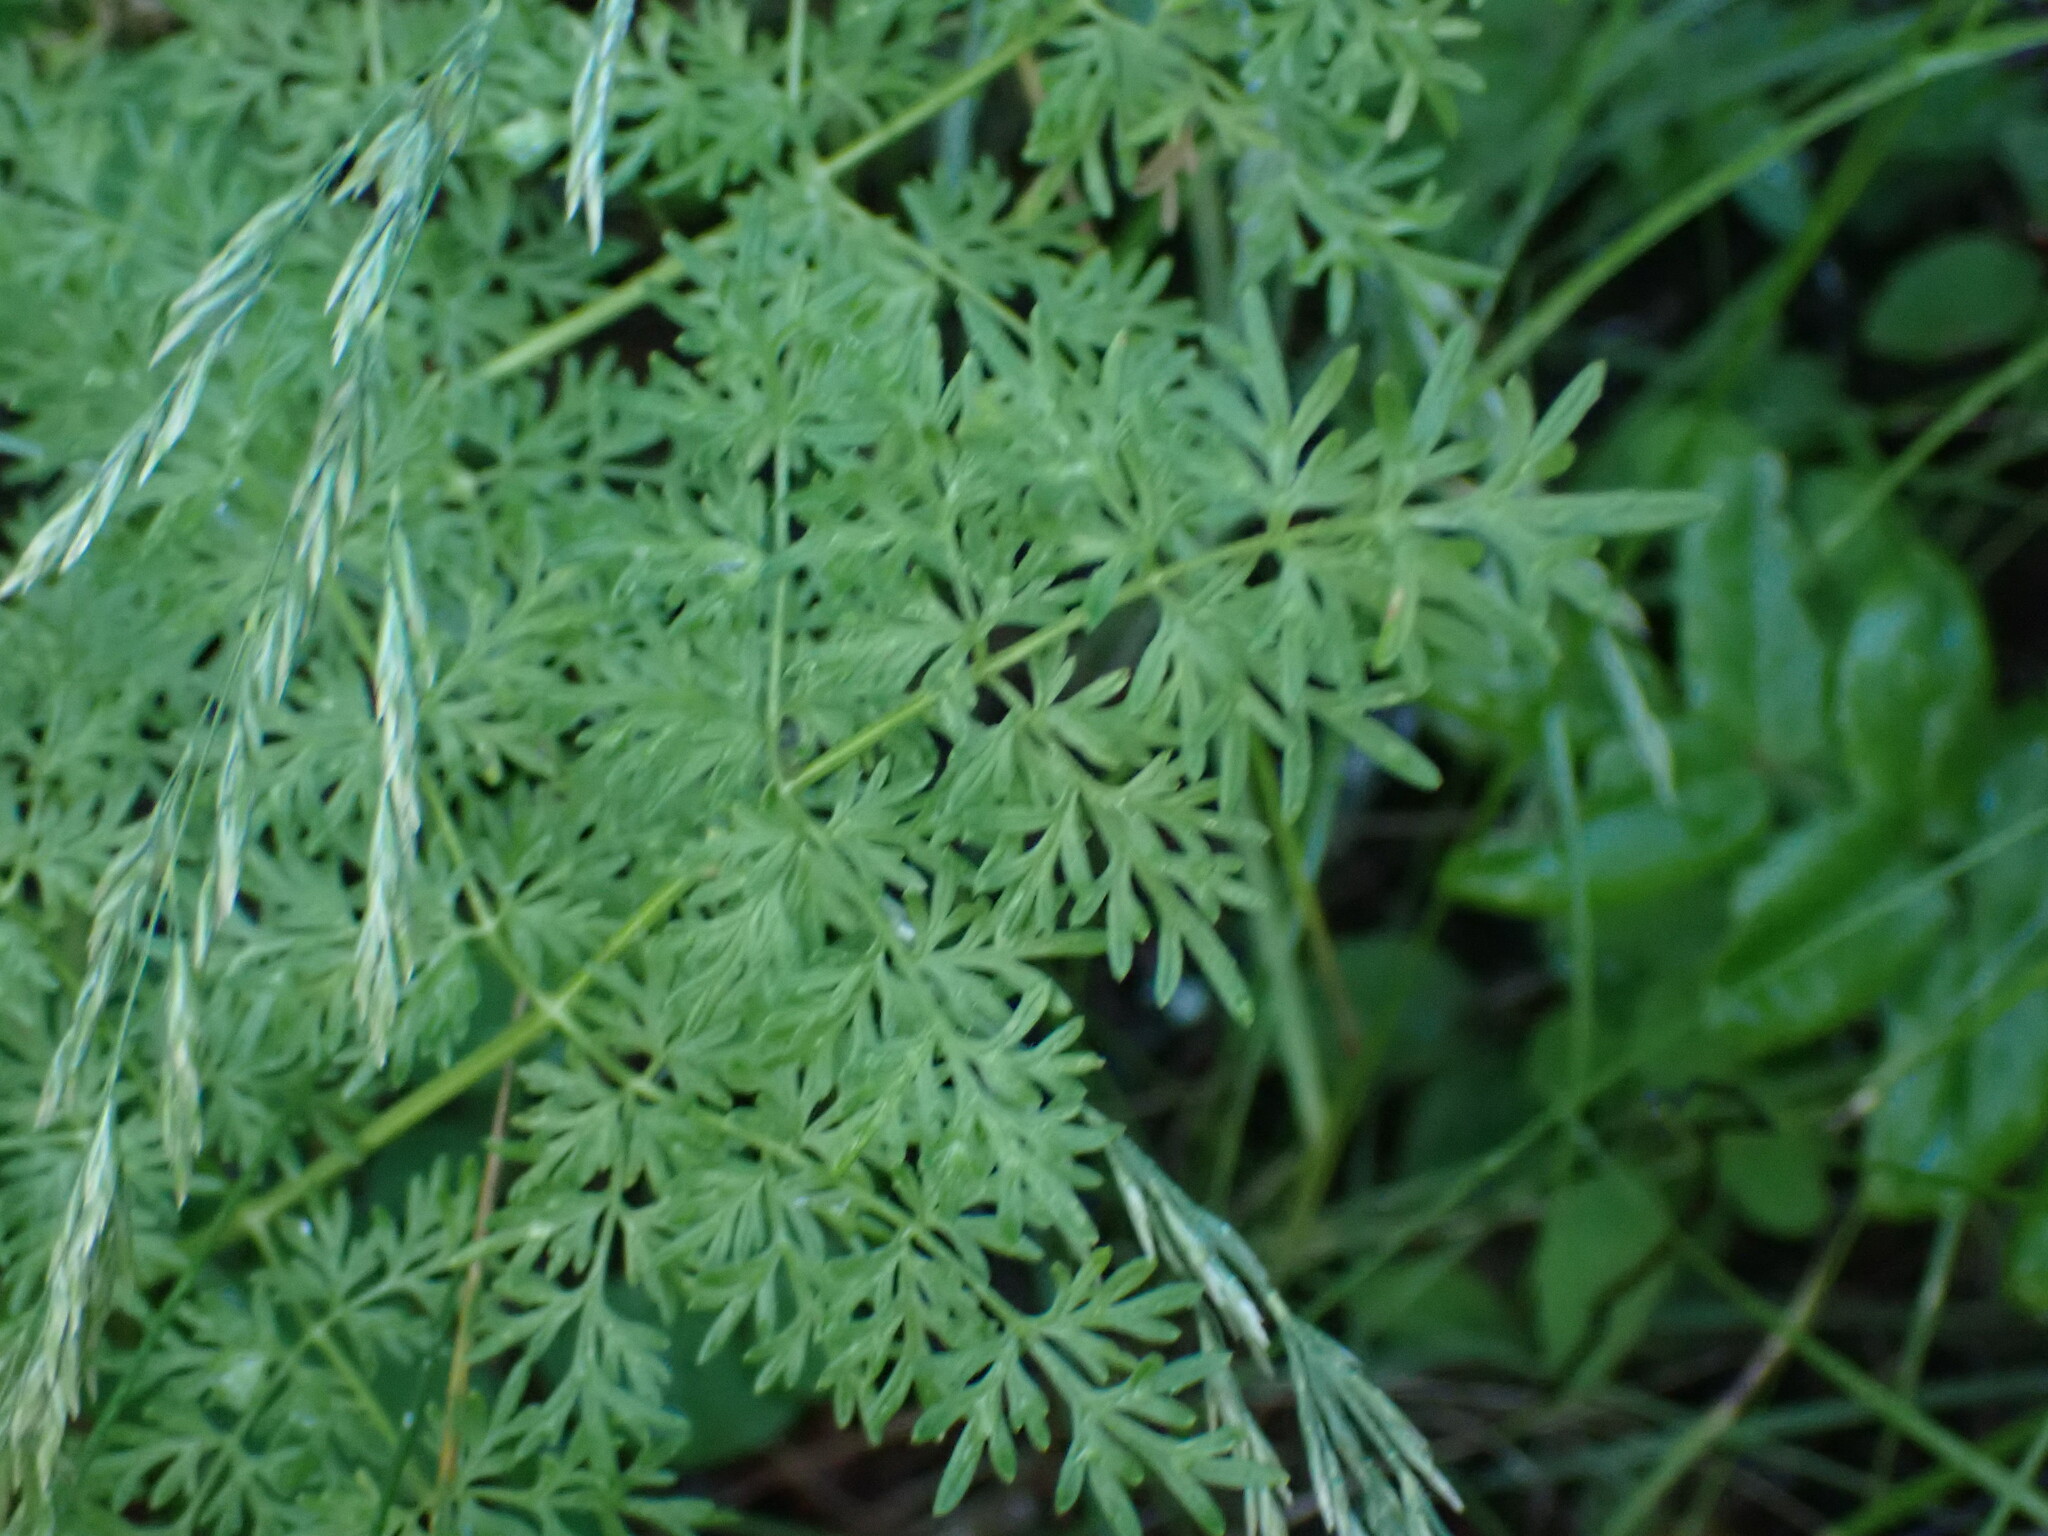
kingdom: Plantae
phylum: Tracheophyta
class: Magnoliopsida
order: Apiales
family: Apiaceae
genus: Lomatium
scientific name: Lomatium multifidum
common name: Carrot-leaved biscuitroot
